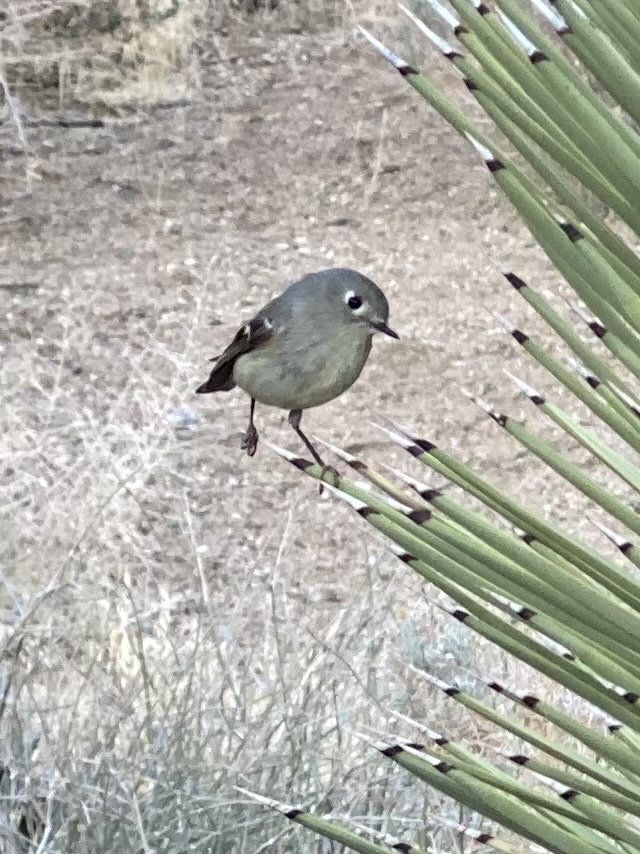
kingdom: Animalia
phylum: Chordata
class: Aves
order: Passeriformes
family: Regulidae
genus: Regulus
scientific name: Regulus calendula
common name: Ruby-crowned kinglet
